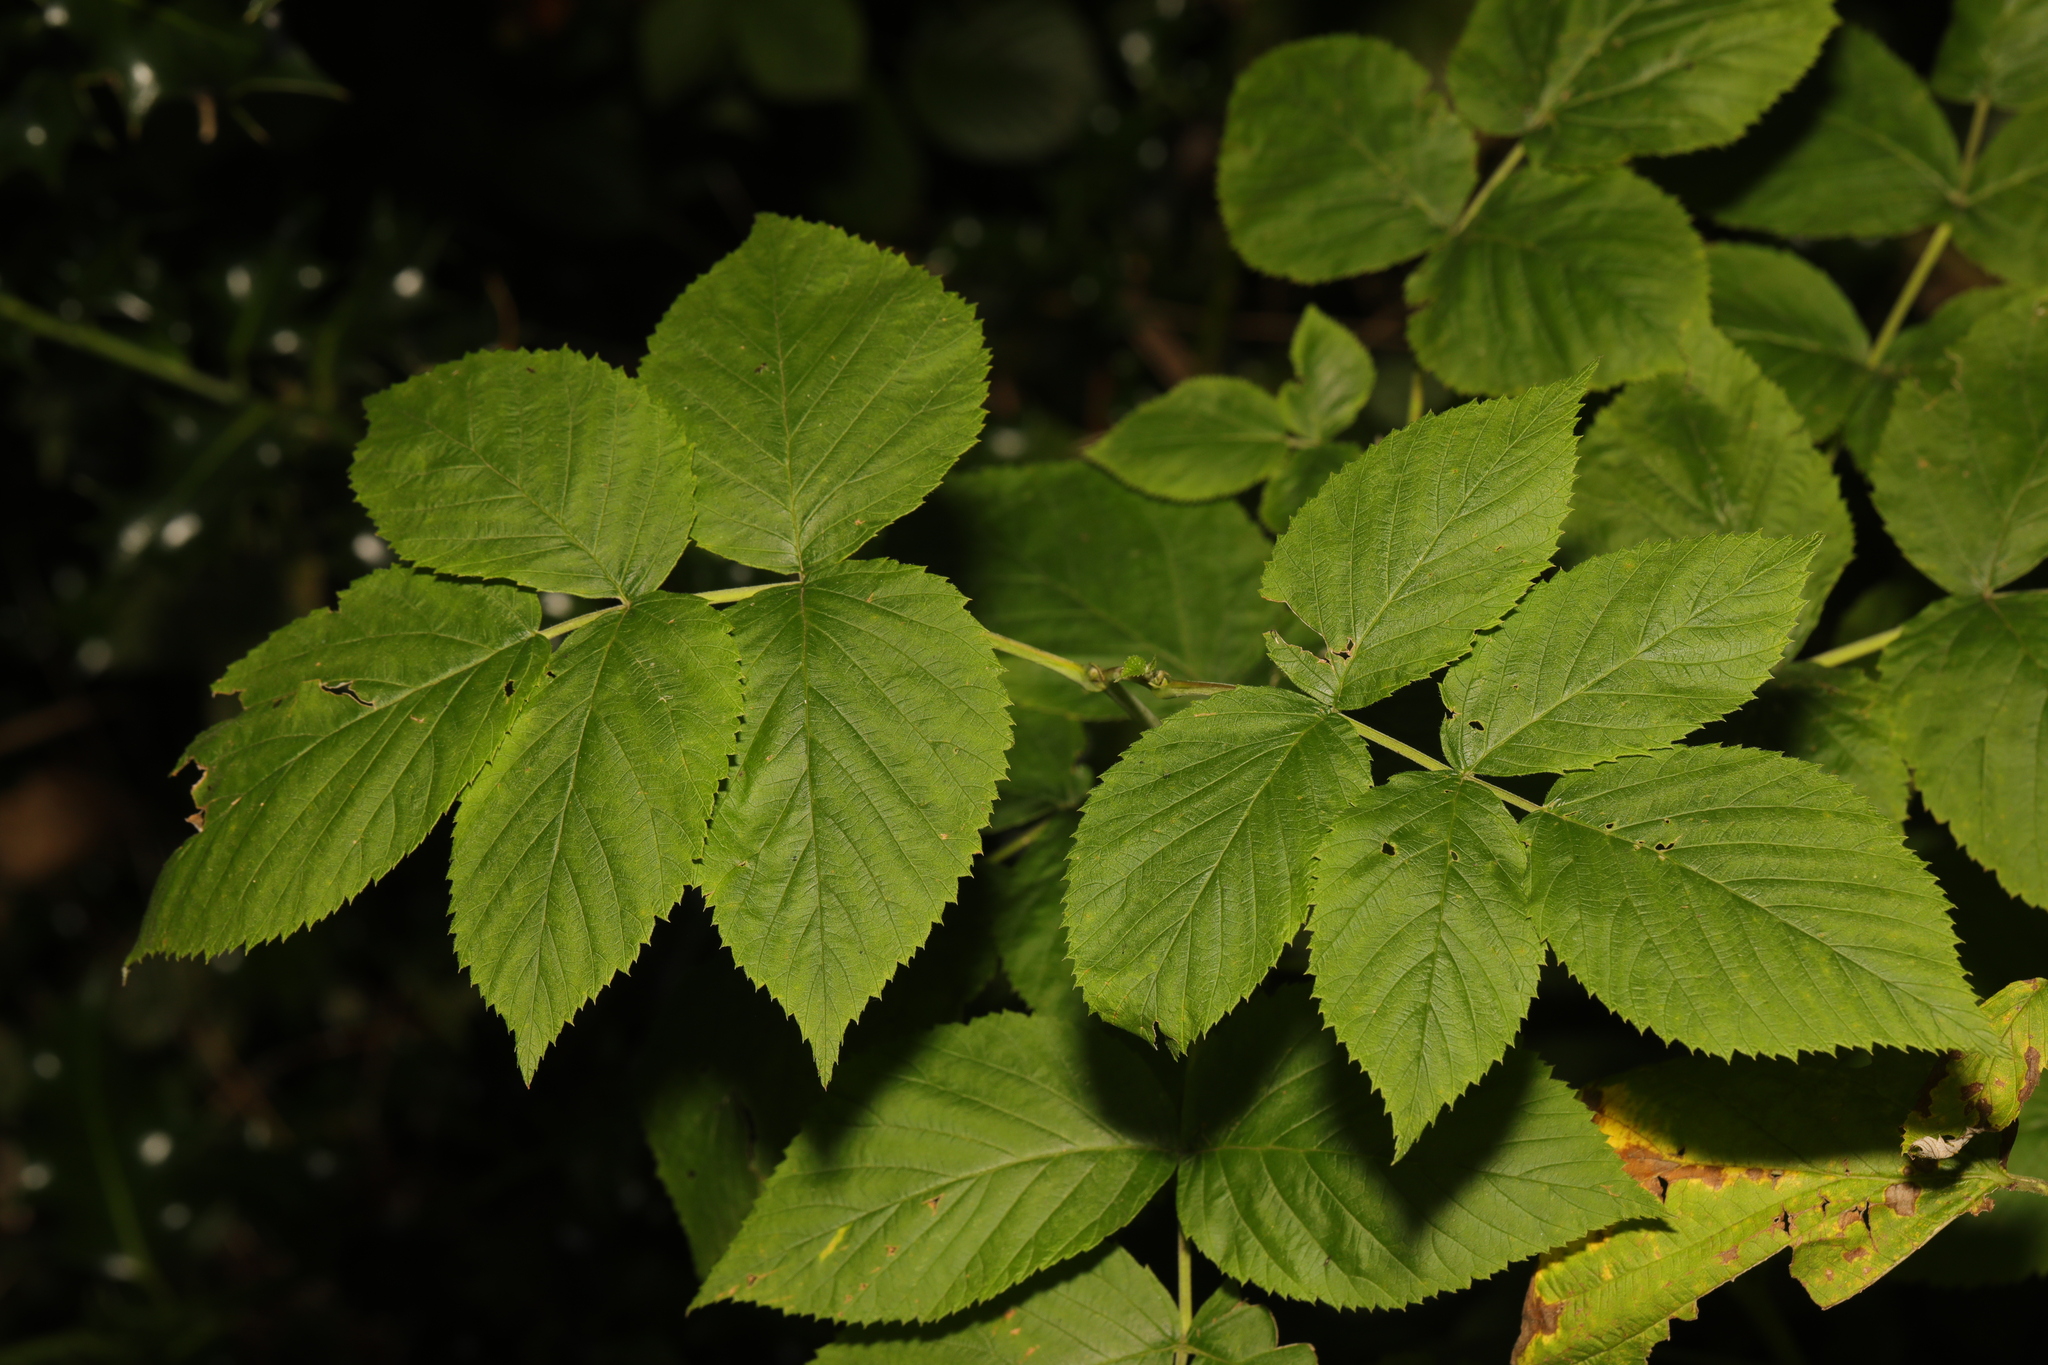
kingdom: Plantae
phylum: Tracheophyta
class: Magnoliopsida
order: Dipsacales
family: Viburnaceae
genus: Sambucus
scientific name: Sambucus nigra
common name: Elder
